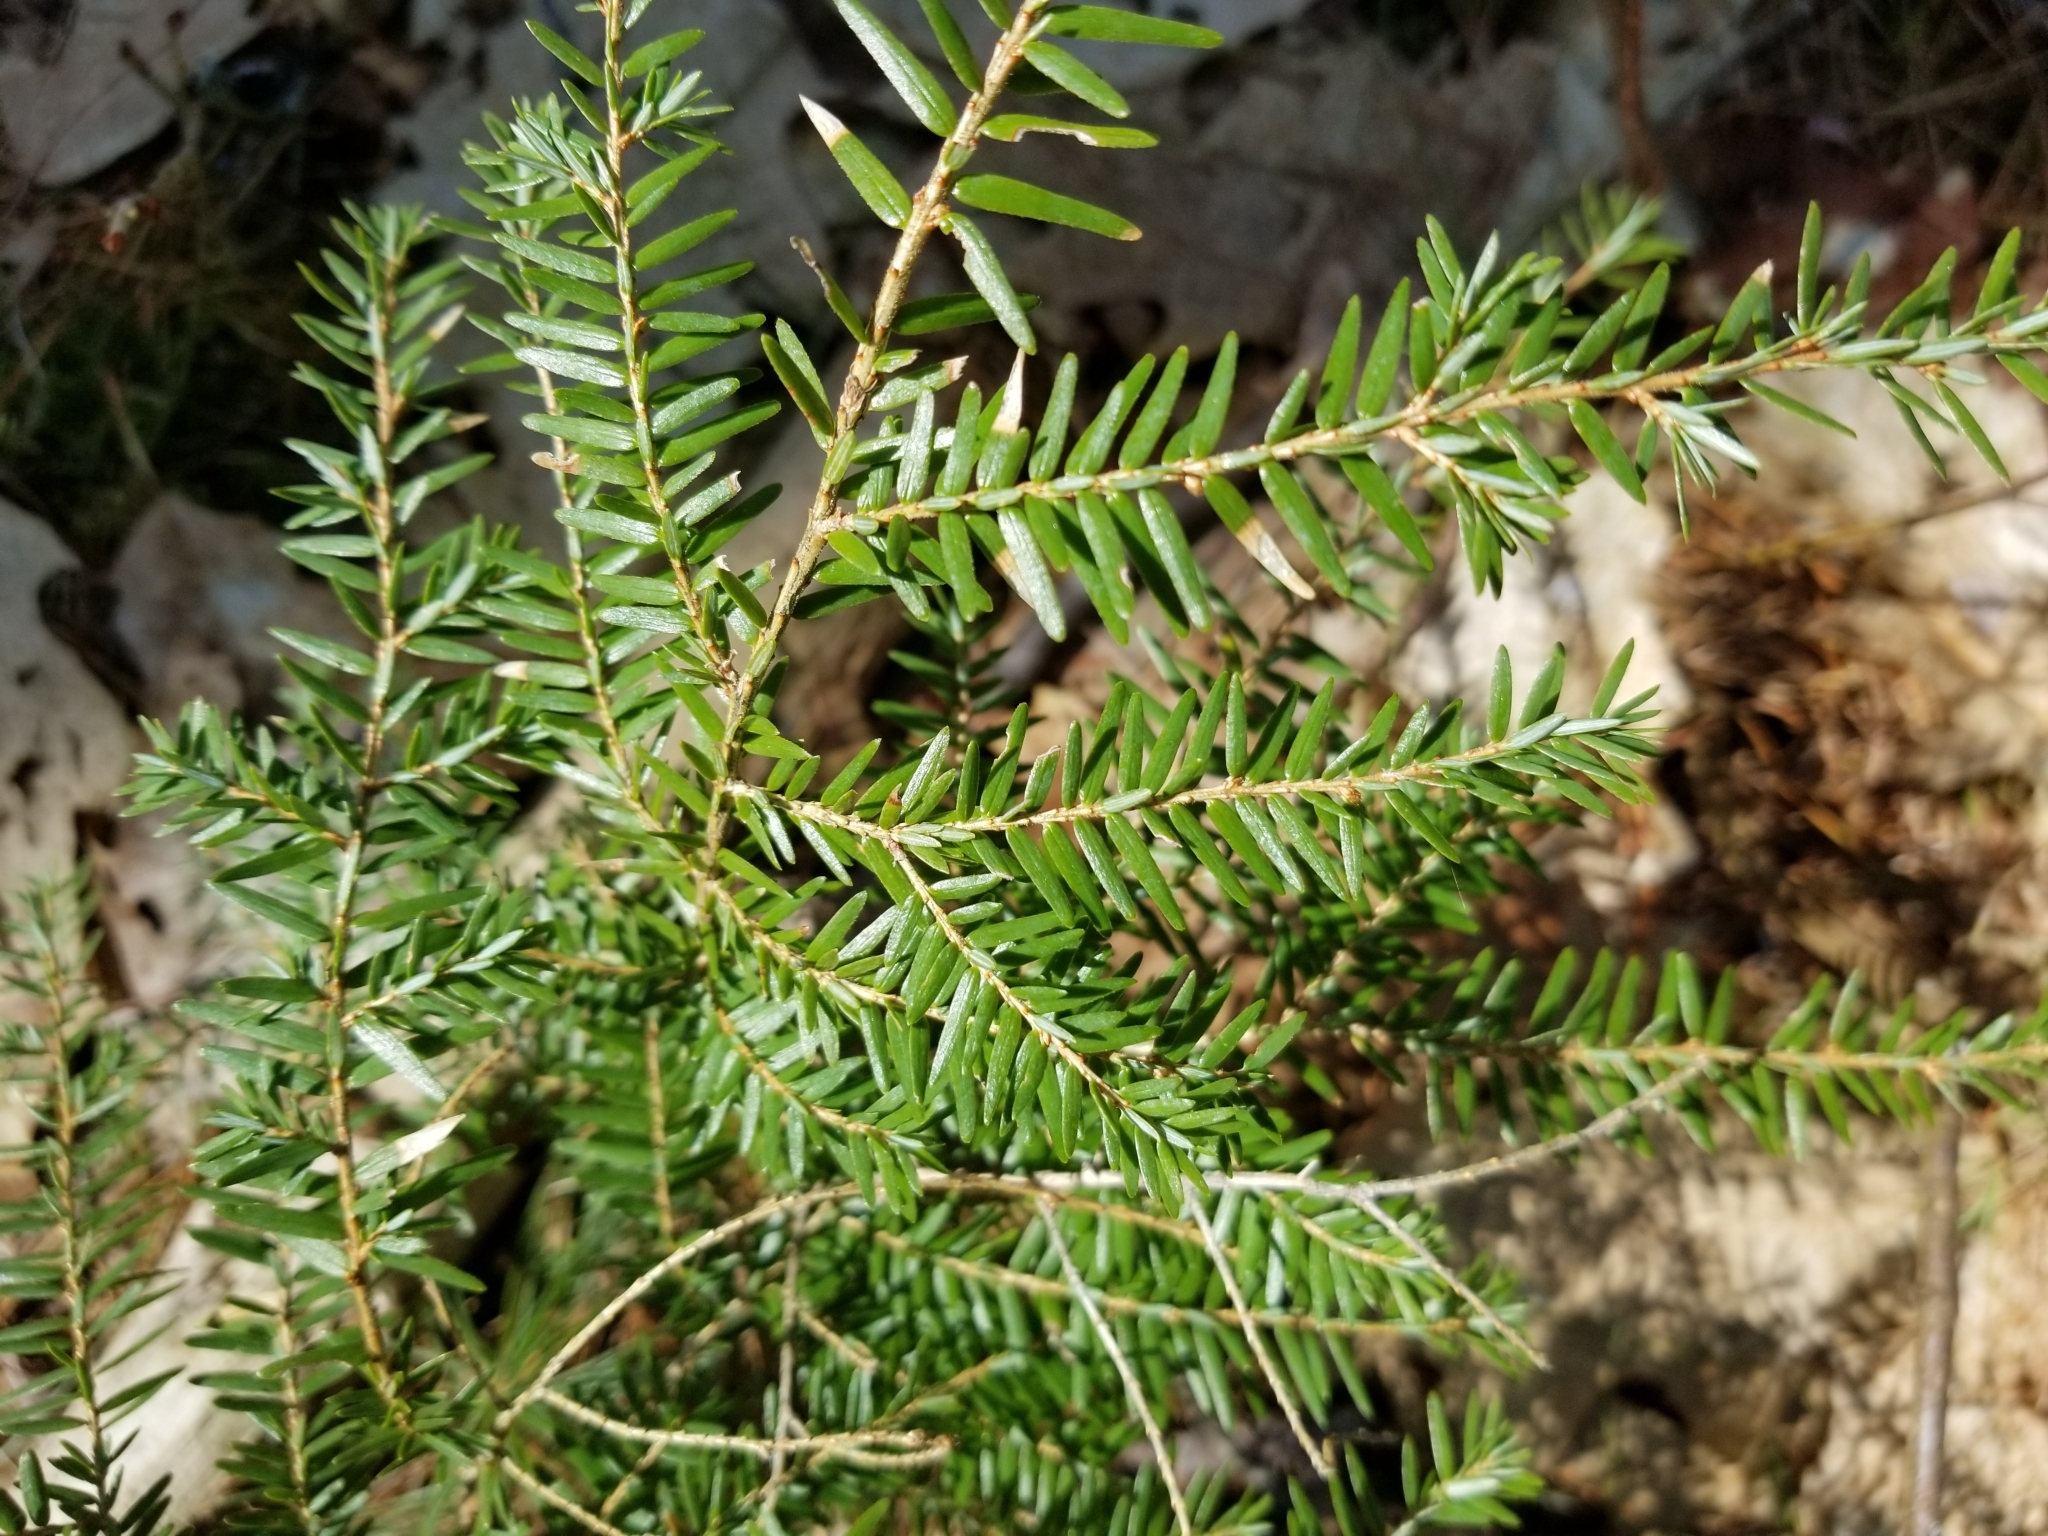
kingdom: Plantae
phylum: Tracheophyta
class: Pinopsida
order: Pinales
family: Pinaceae
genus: Tsuga
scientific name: Tsuga canadensis
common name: Eastern hemlock
